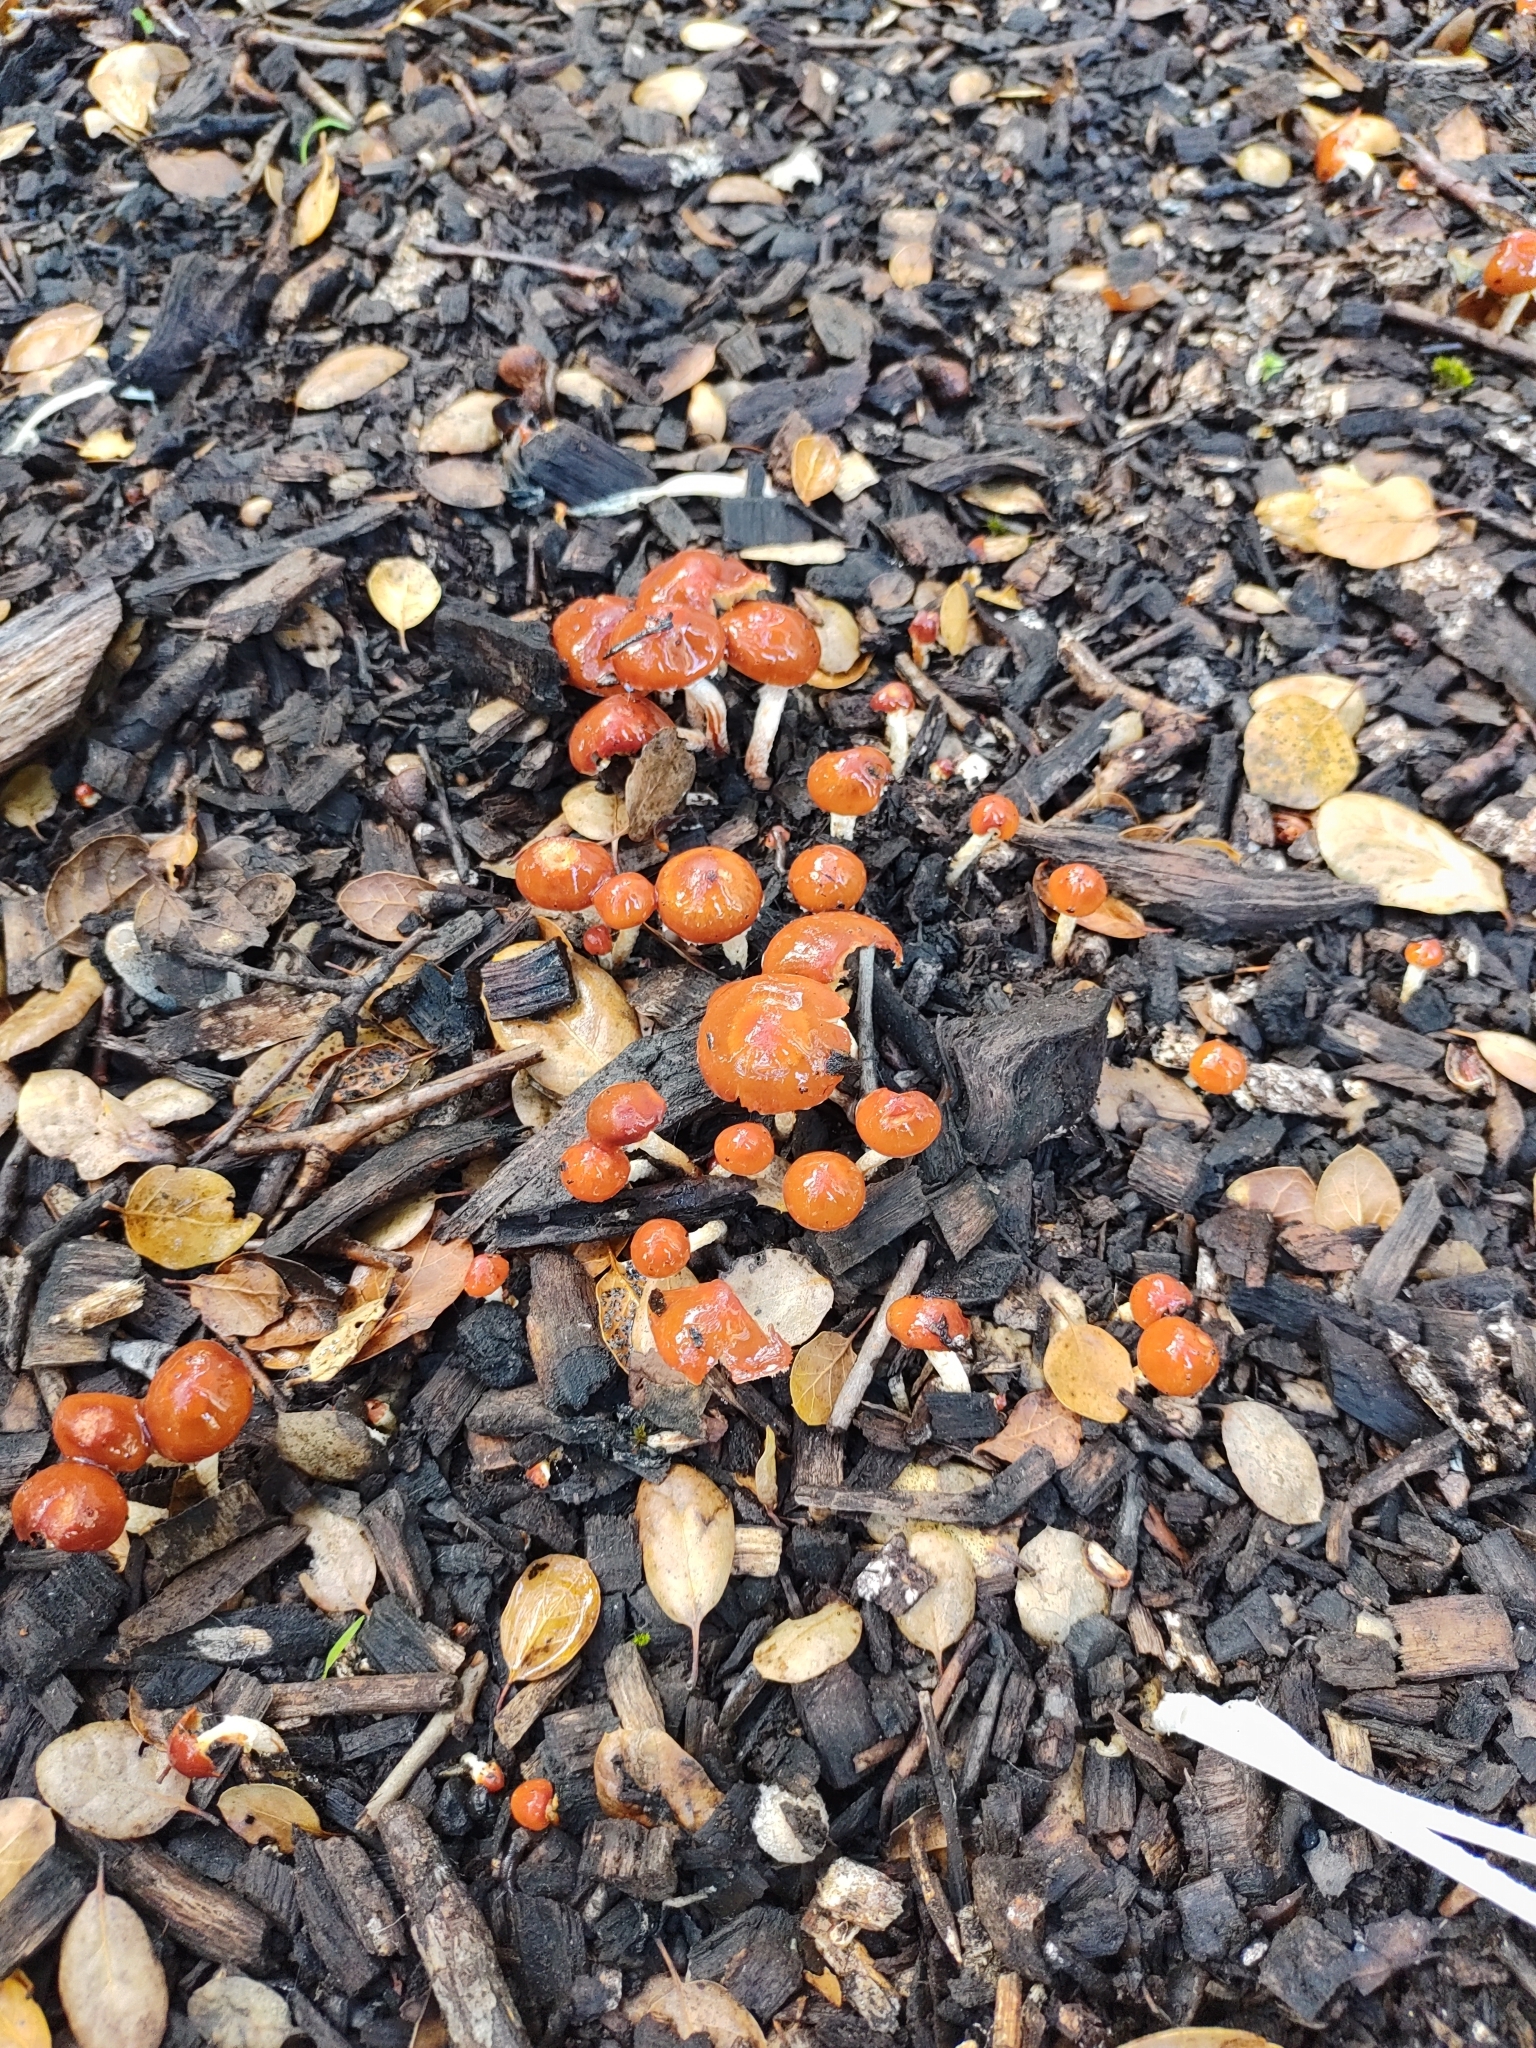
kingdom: Fungi
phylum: Basidiomycota
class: Agaricomycetes
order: Agaricales
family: Strophariaceae
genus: Leratiomyces
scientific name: Leratiomyces ceres
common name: Redlead roundhead
